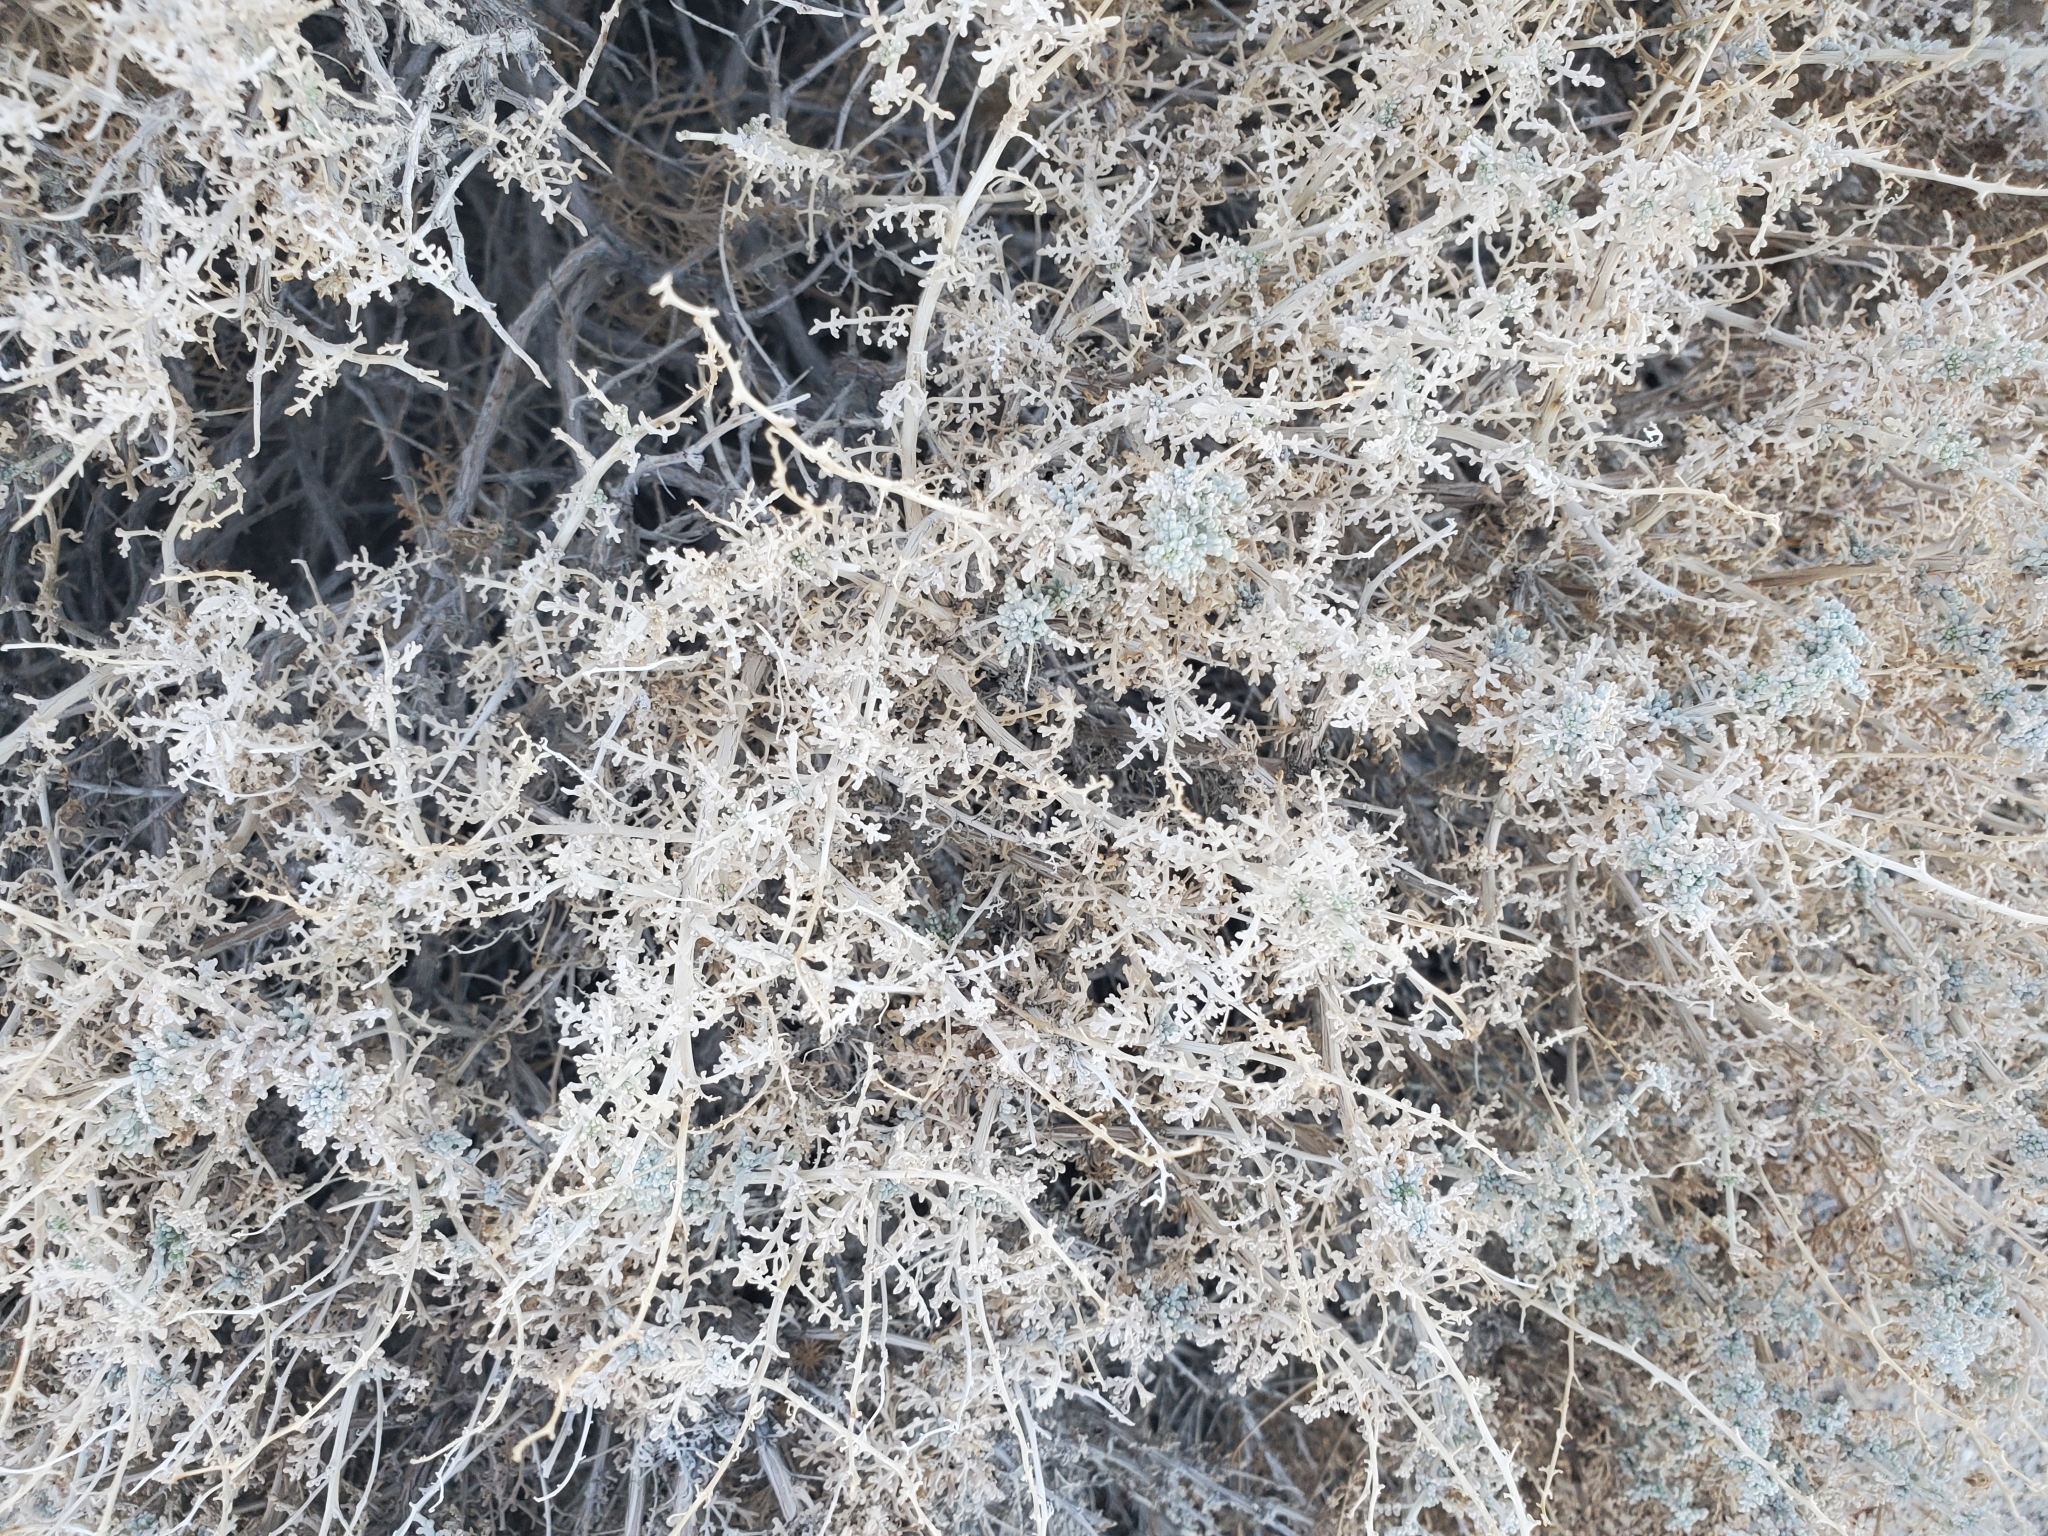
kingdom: Plantae
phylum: Tracheophyta
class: Magnoliopsida
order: Asterales
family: Asteraceae
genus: Ambrosia
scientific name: Ambrosia dumosa
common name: Bur-sage
